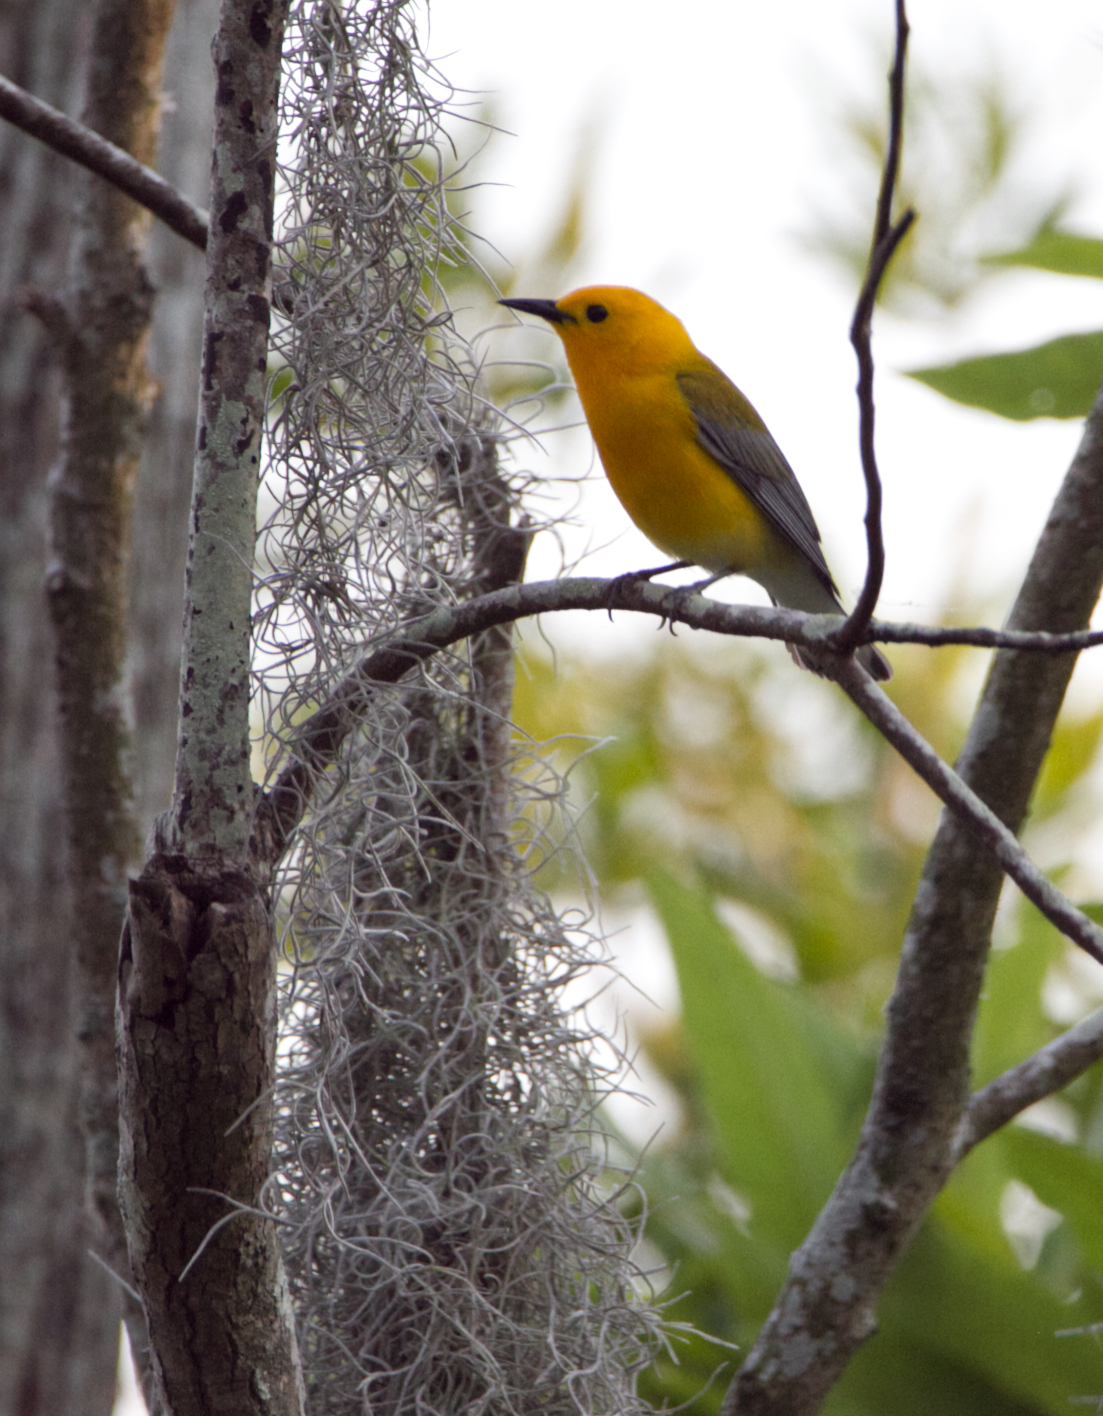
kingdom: Animalia
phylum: Chordata
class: Aves
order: Passeriformes
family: Parulidae
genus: Protonotaria
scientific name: Protonotaria citrea
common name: Prothonotary warbler
